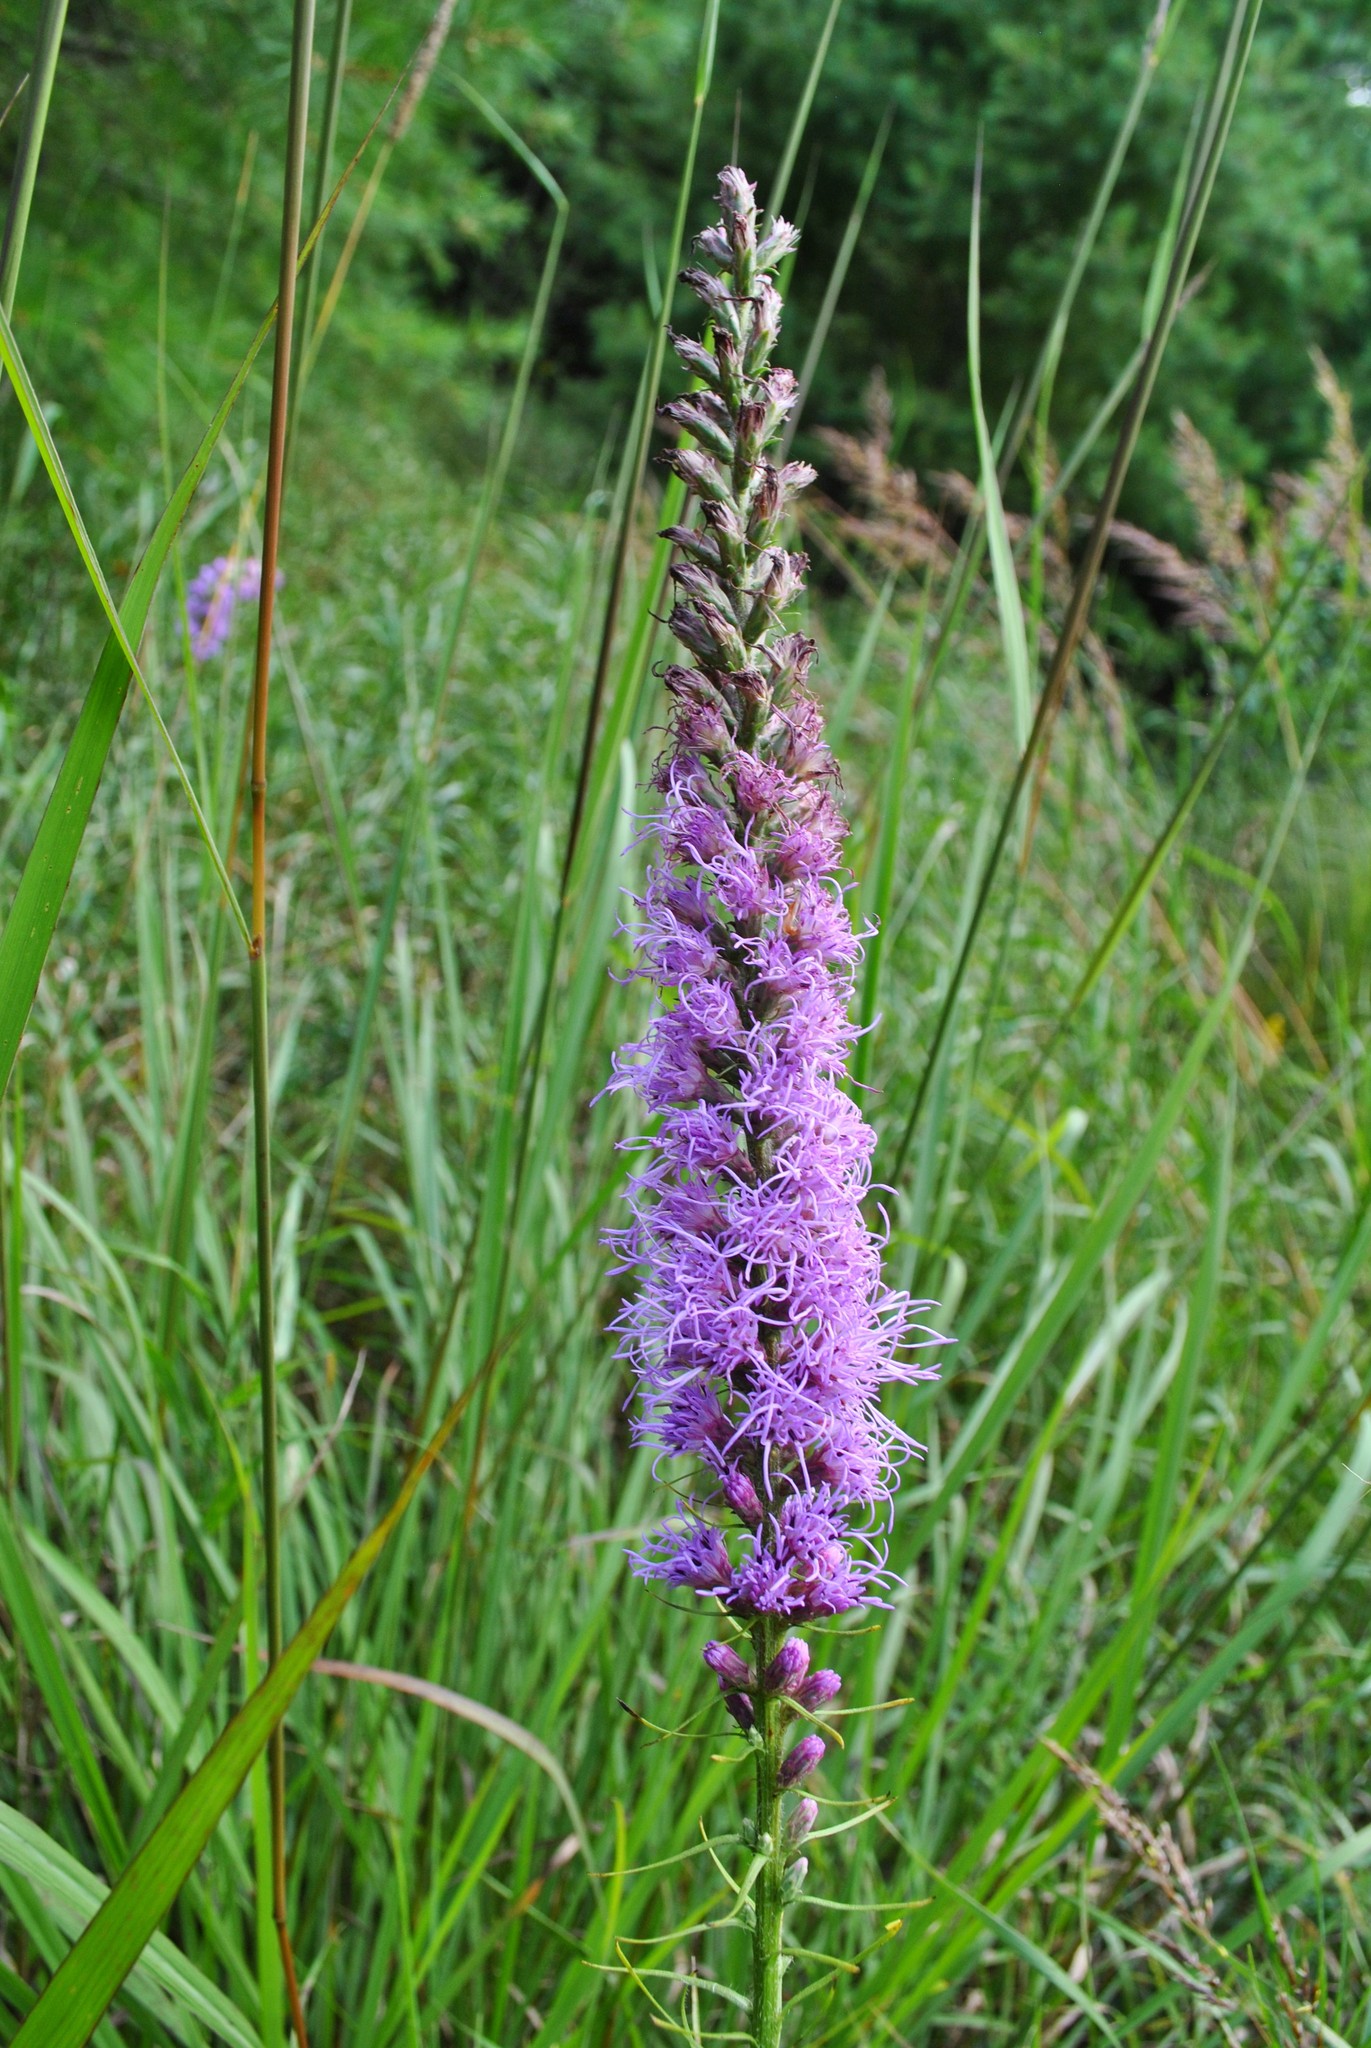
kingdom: Plantae
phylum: Tracheophyta
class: Magnoliopsida
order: Asterales
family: Asteraceae
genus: Liatris
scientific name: Liatris pycnostachya
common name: Cattail gayfeather
